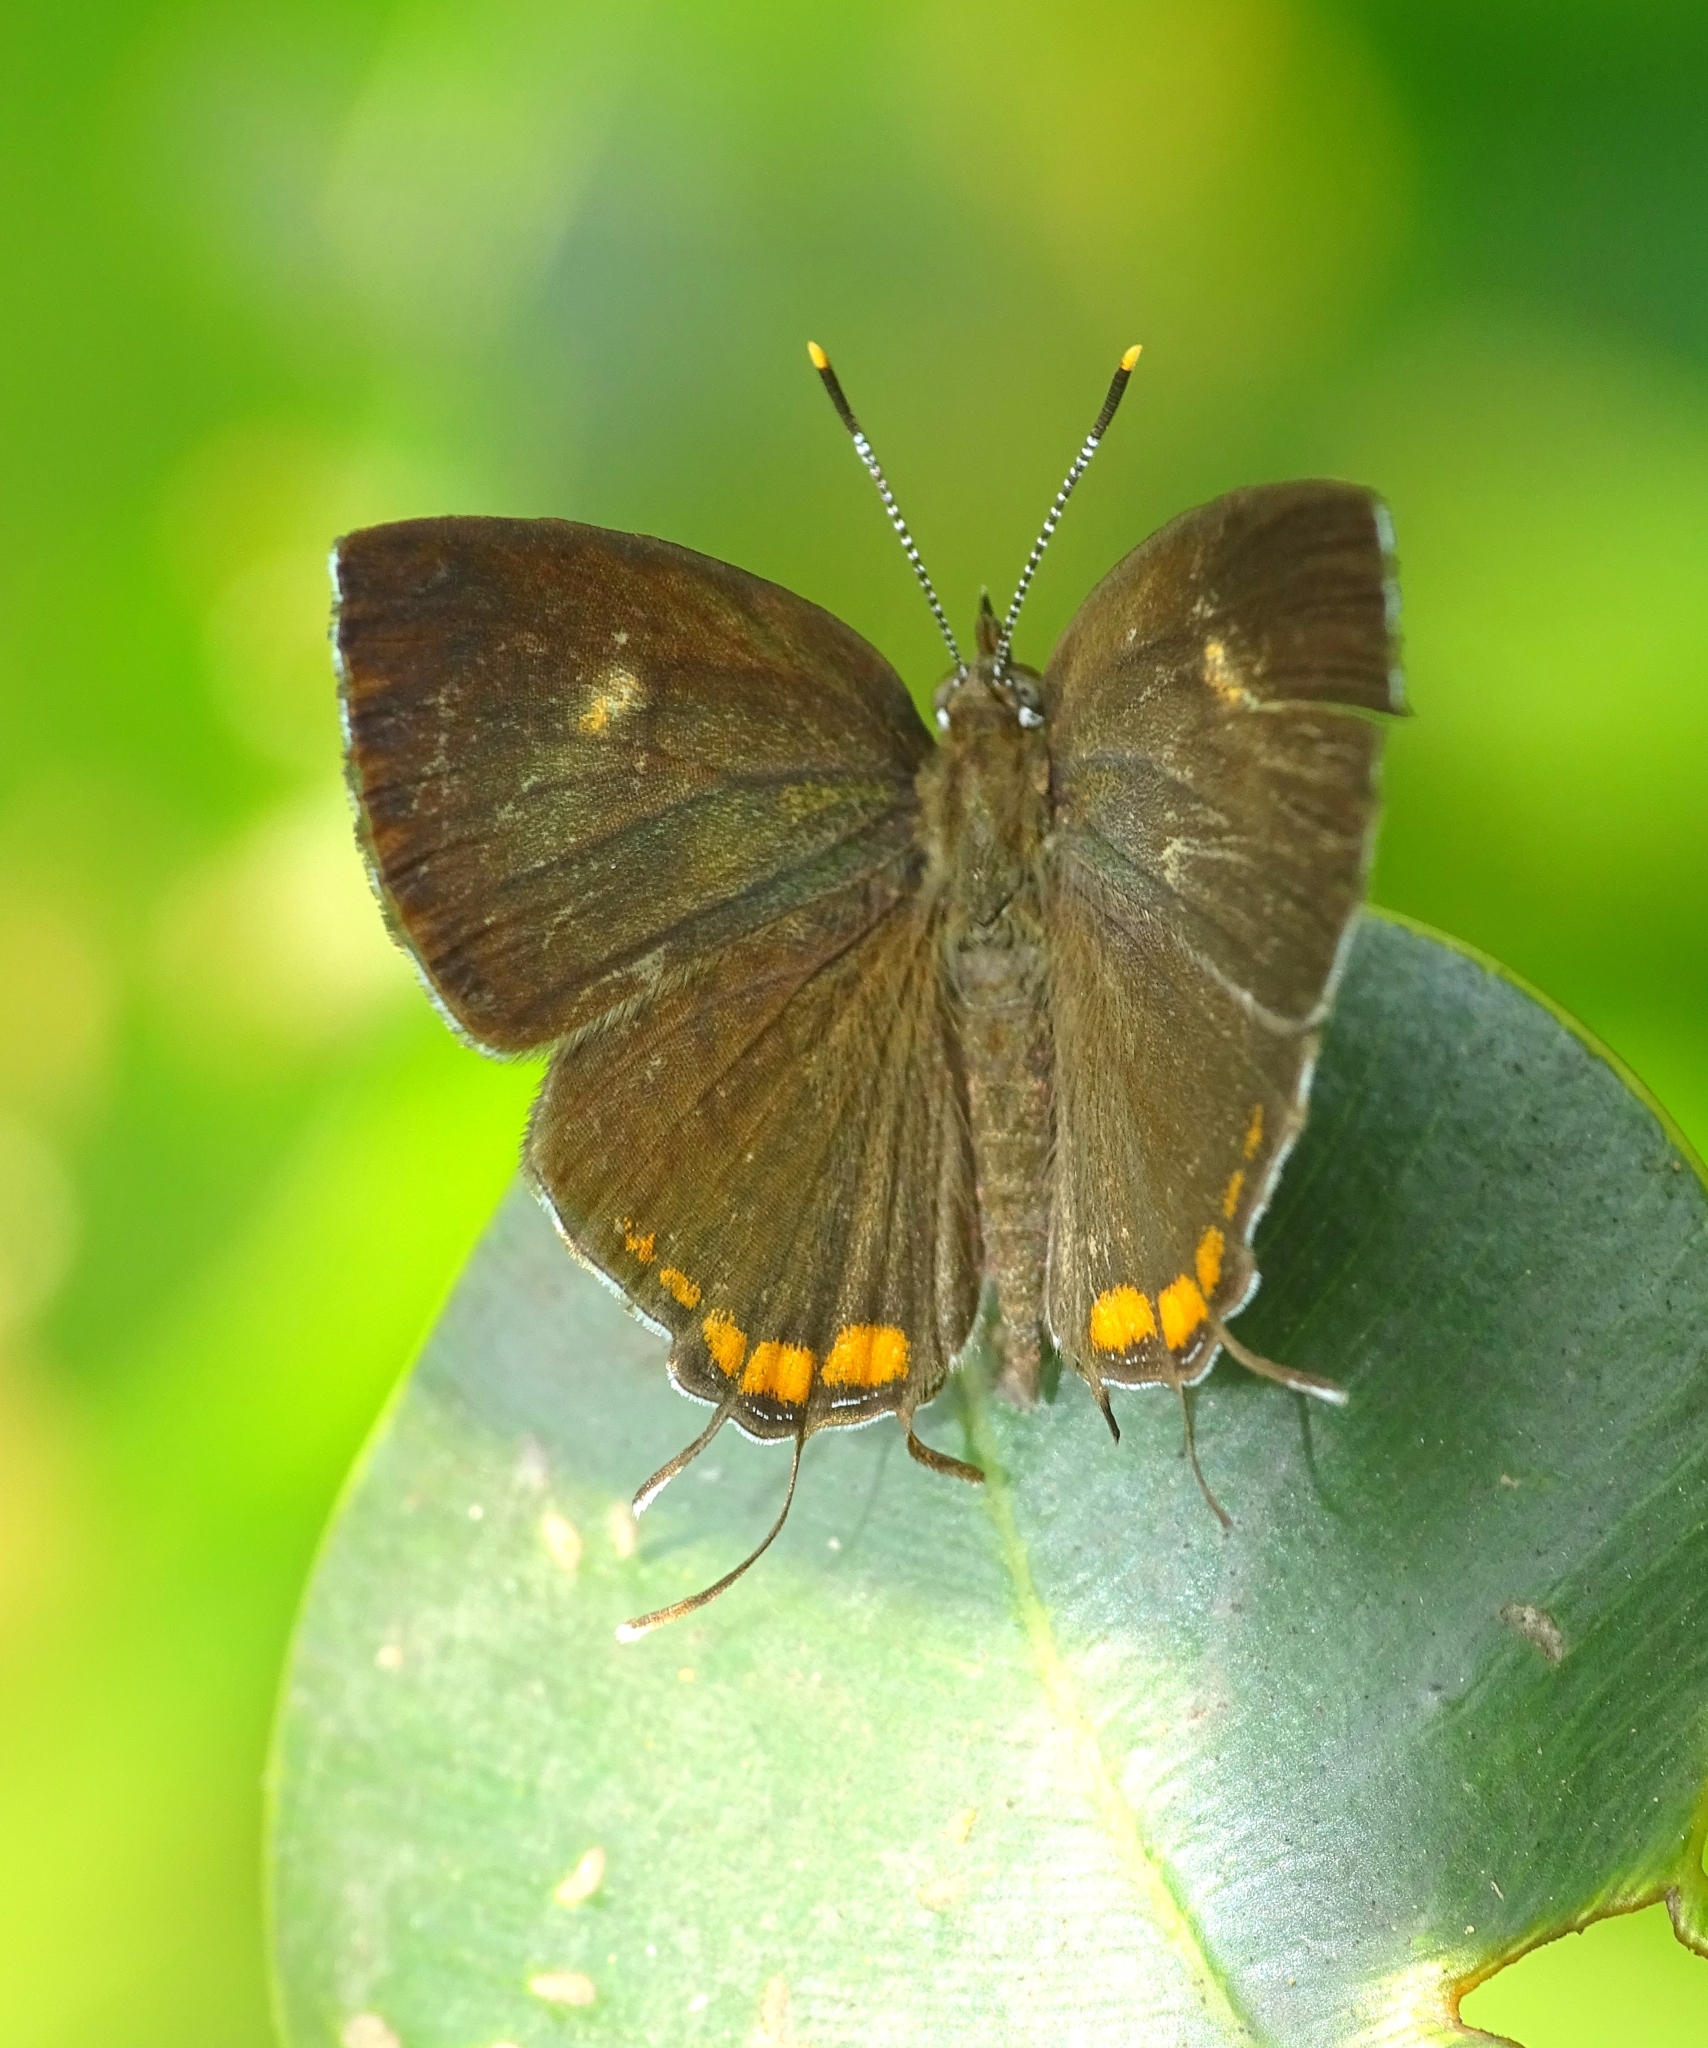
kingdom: Animalia
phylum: Arthropoda
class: Insecta
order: Lepidoptera
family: Lycaenidae
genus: Rathinda
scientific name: Rathinda amor
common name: Monkey puzzle
